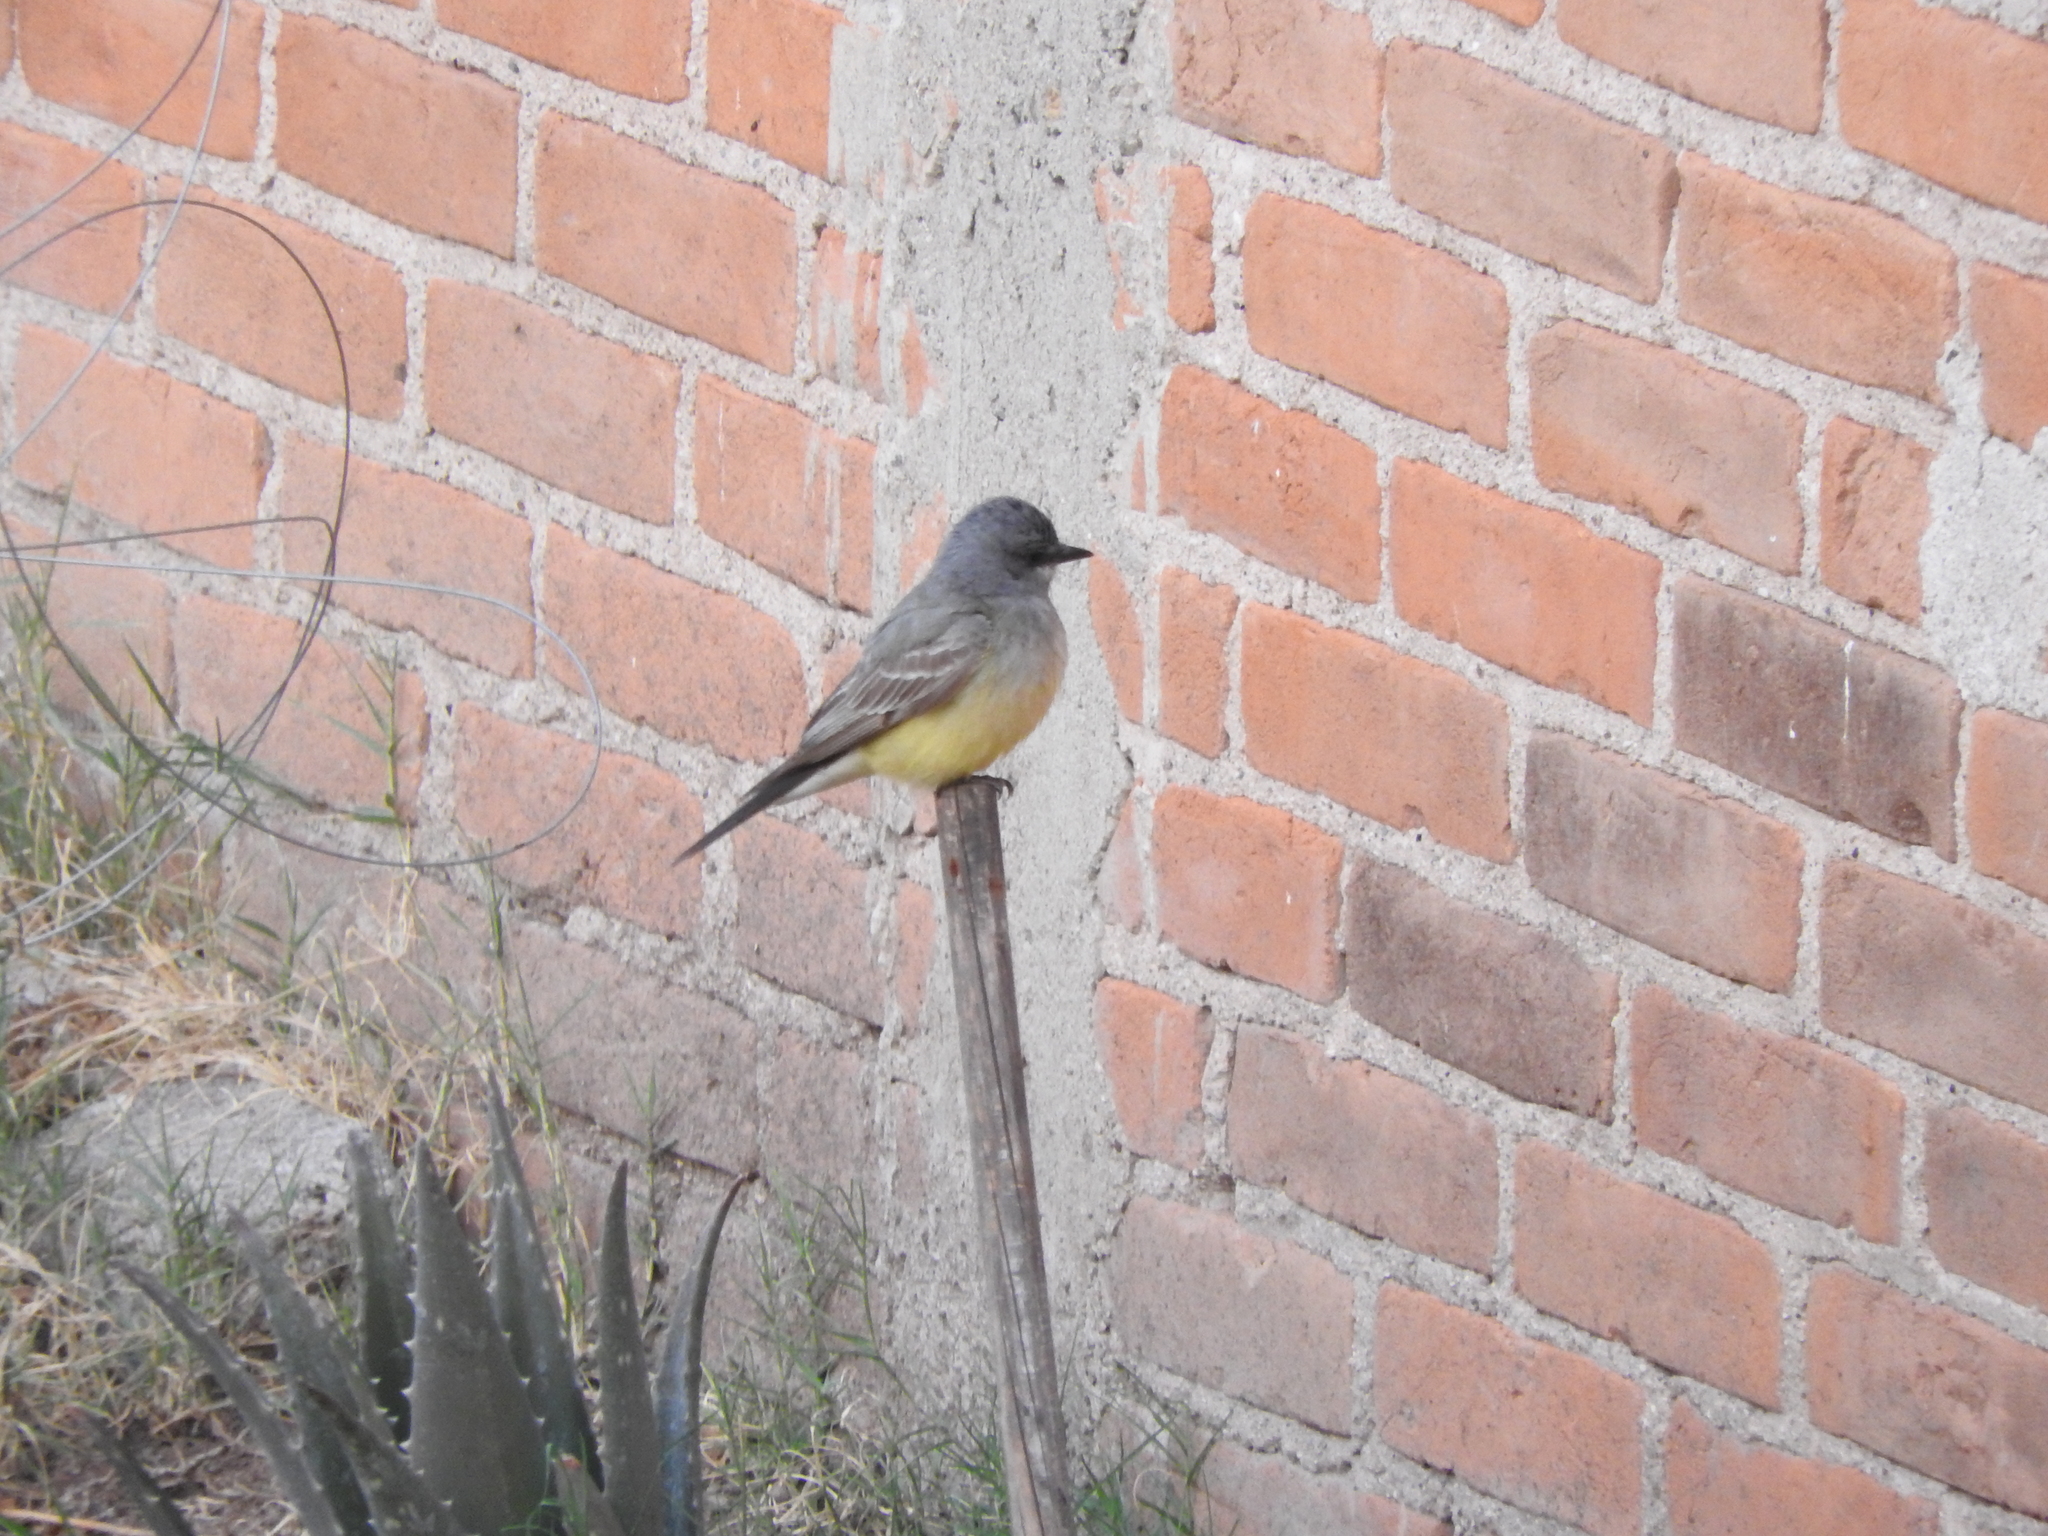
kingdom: Animalia
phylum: Chordata
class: Aves
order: Passeriformes
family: Tyrannidae
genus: Tyrannus
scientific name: Tyrannus vociferans
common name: Cassin's kingbird
